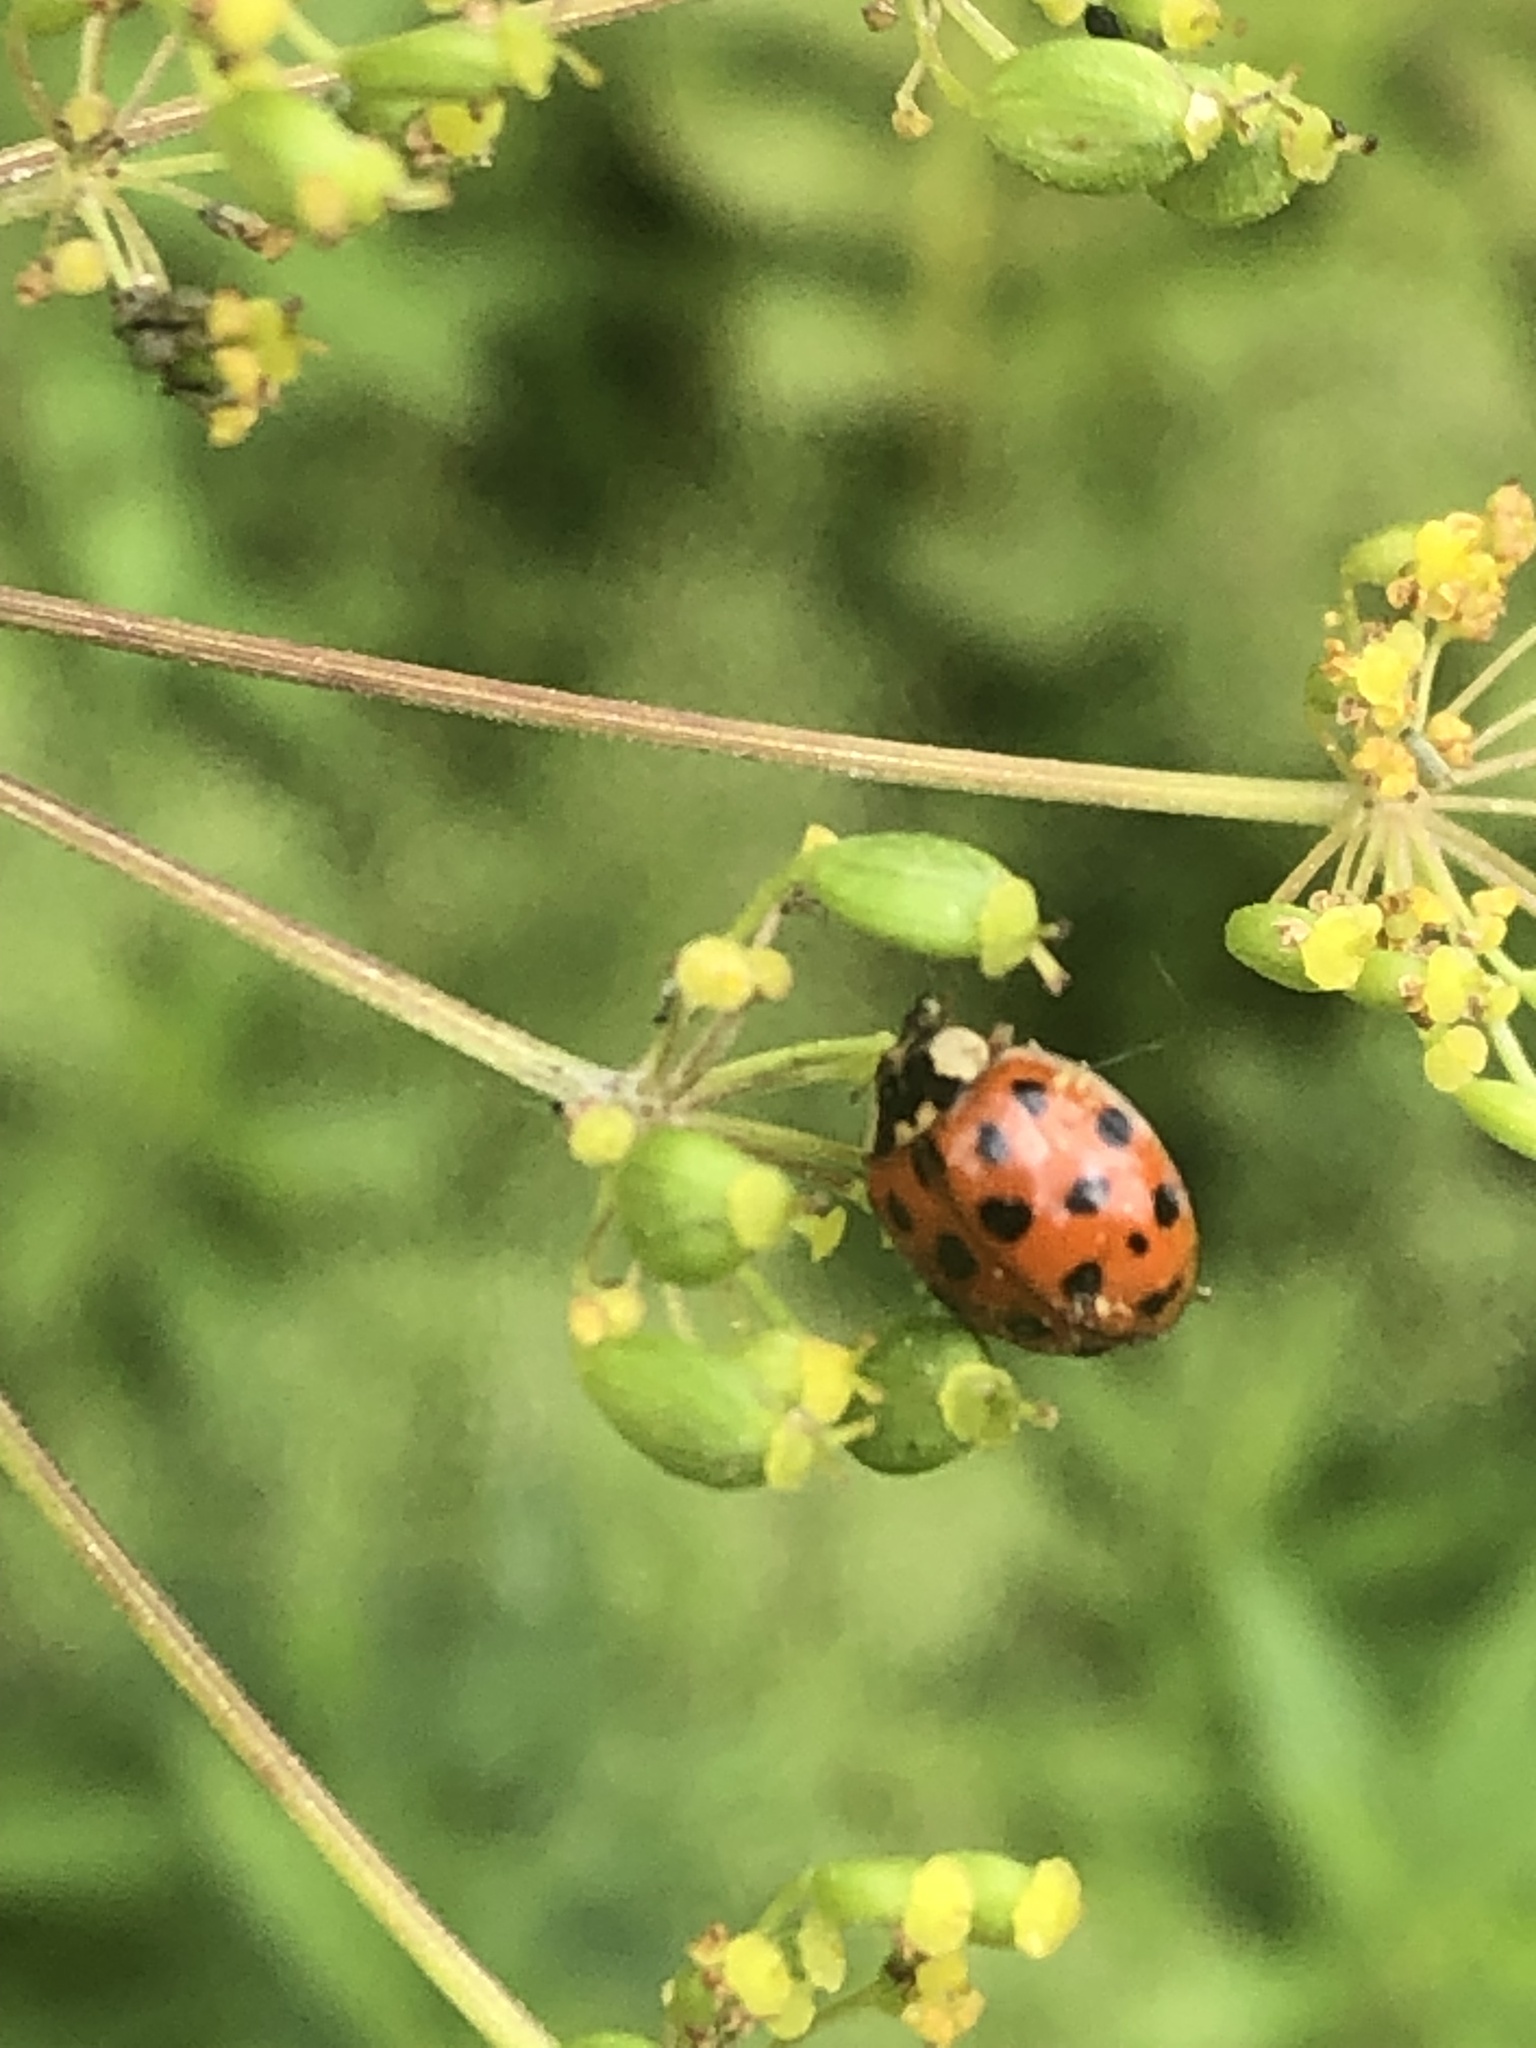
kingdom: Animalia
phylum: Arthropoda
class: Insecta
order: Coleoptera
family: Coccinellidae
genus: Harmonia
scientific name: Harmonia axyridis
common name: Harlequin ladybird
